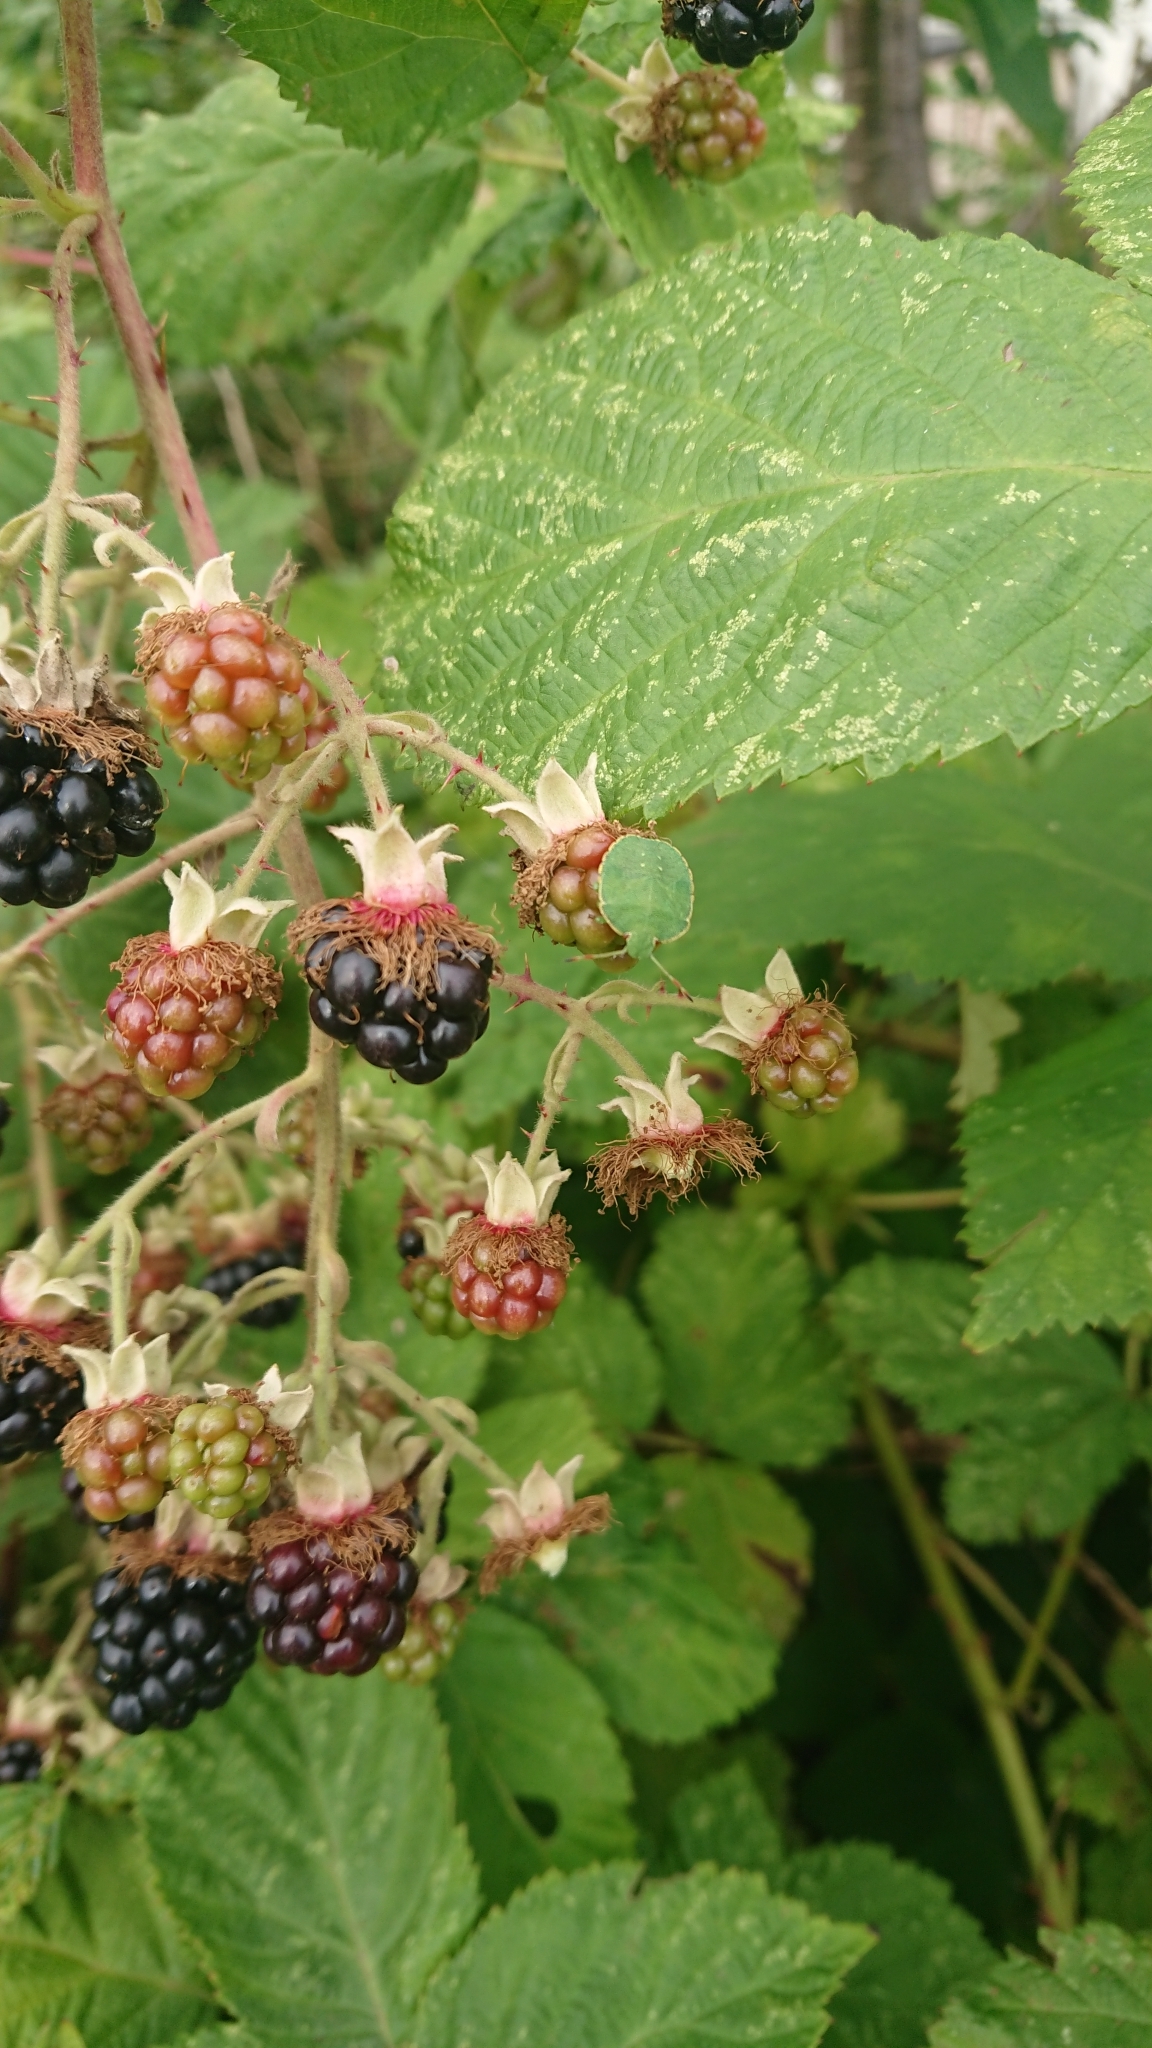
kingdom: Animalia
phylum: Arthropoda
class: Insecta
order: Hemiptera
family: Pentatomidae
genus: Palomena
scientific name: Palomena prasina
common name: Green shieldbug
